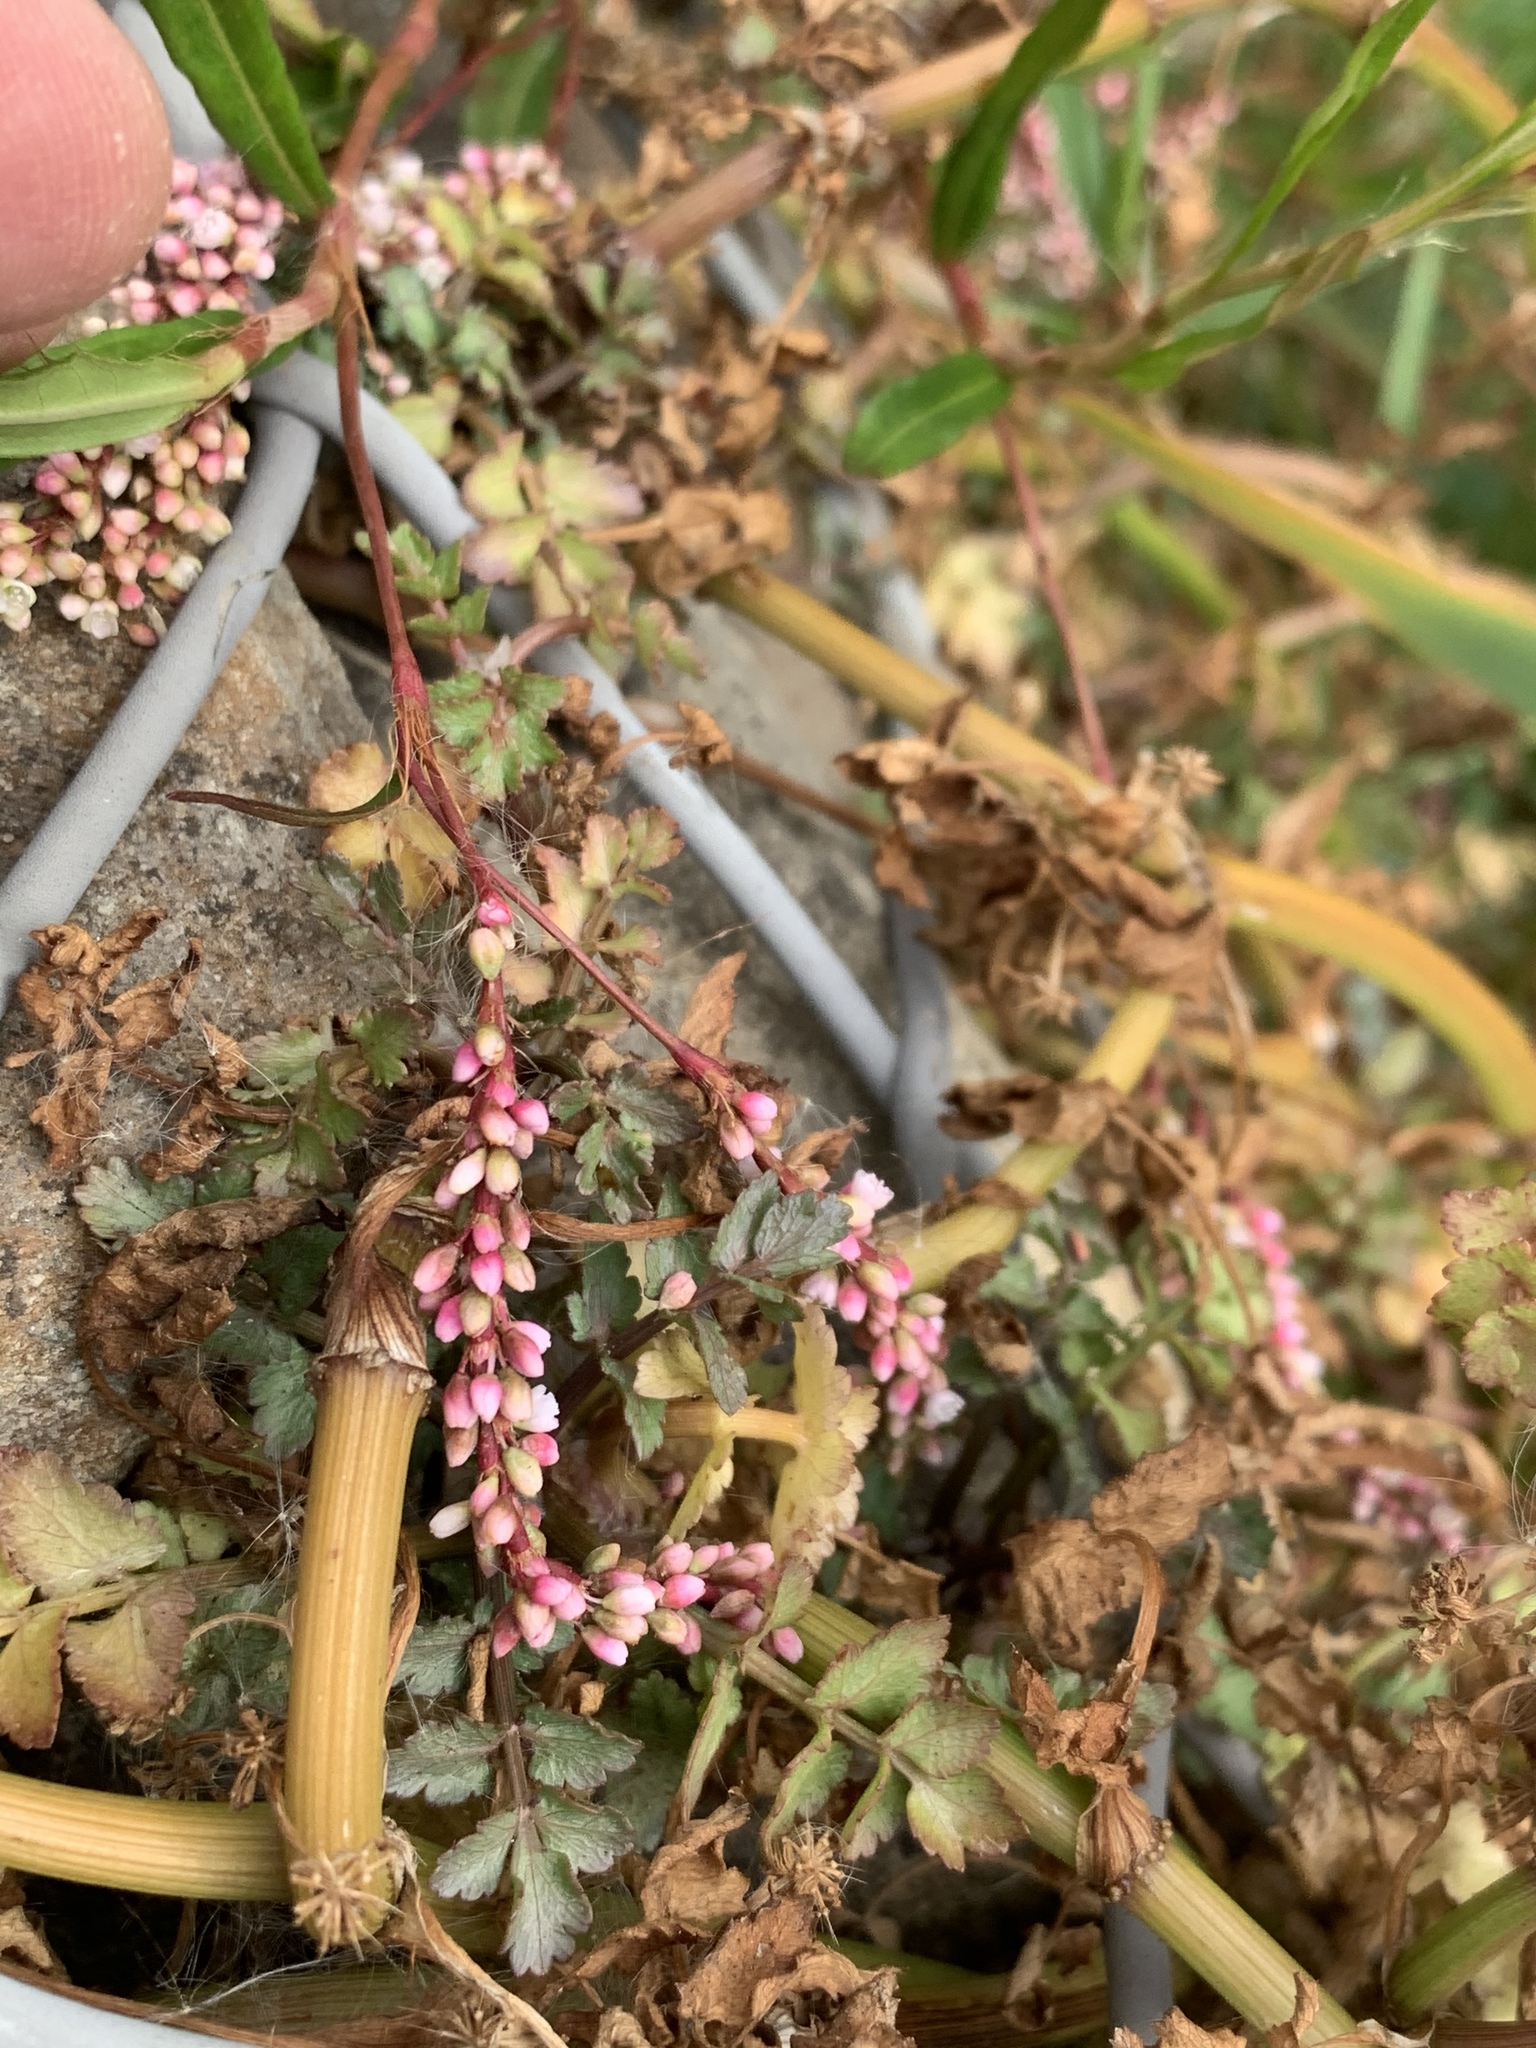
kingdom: Plantae
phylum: Tracheophyta
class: Magnoliopsida
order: Caryophyllales
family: Polygonaceae
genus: Persicaria
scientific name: Persicaria decipiens
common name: Willow-weed
